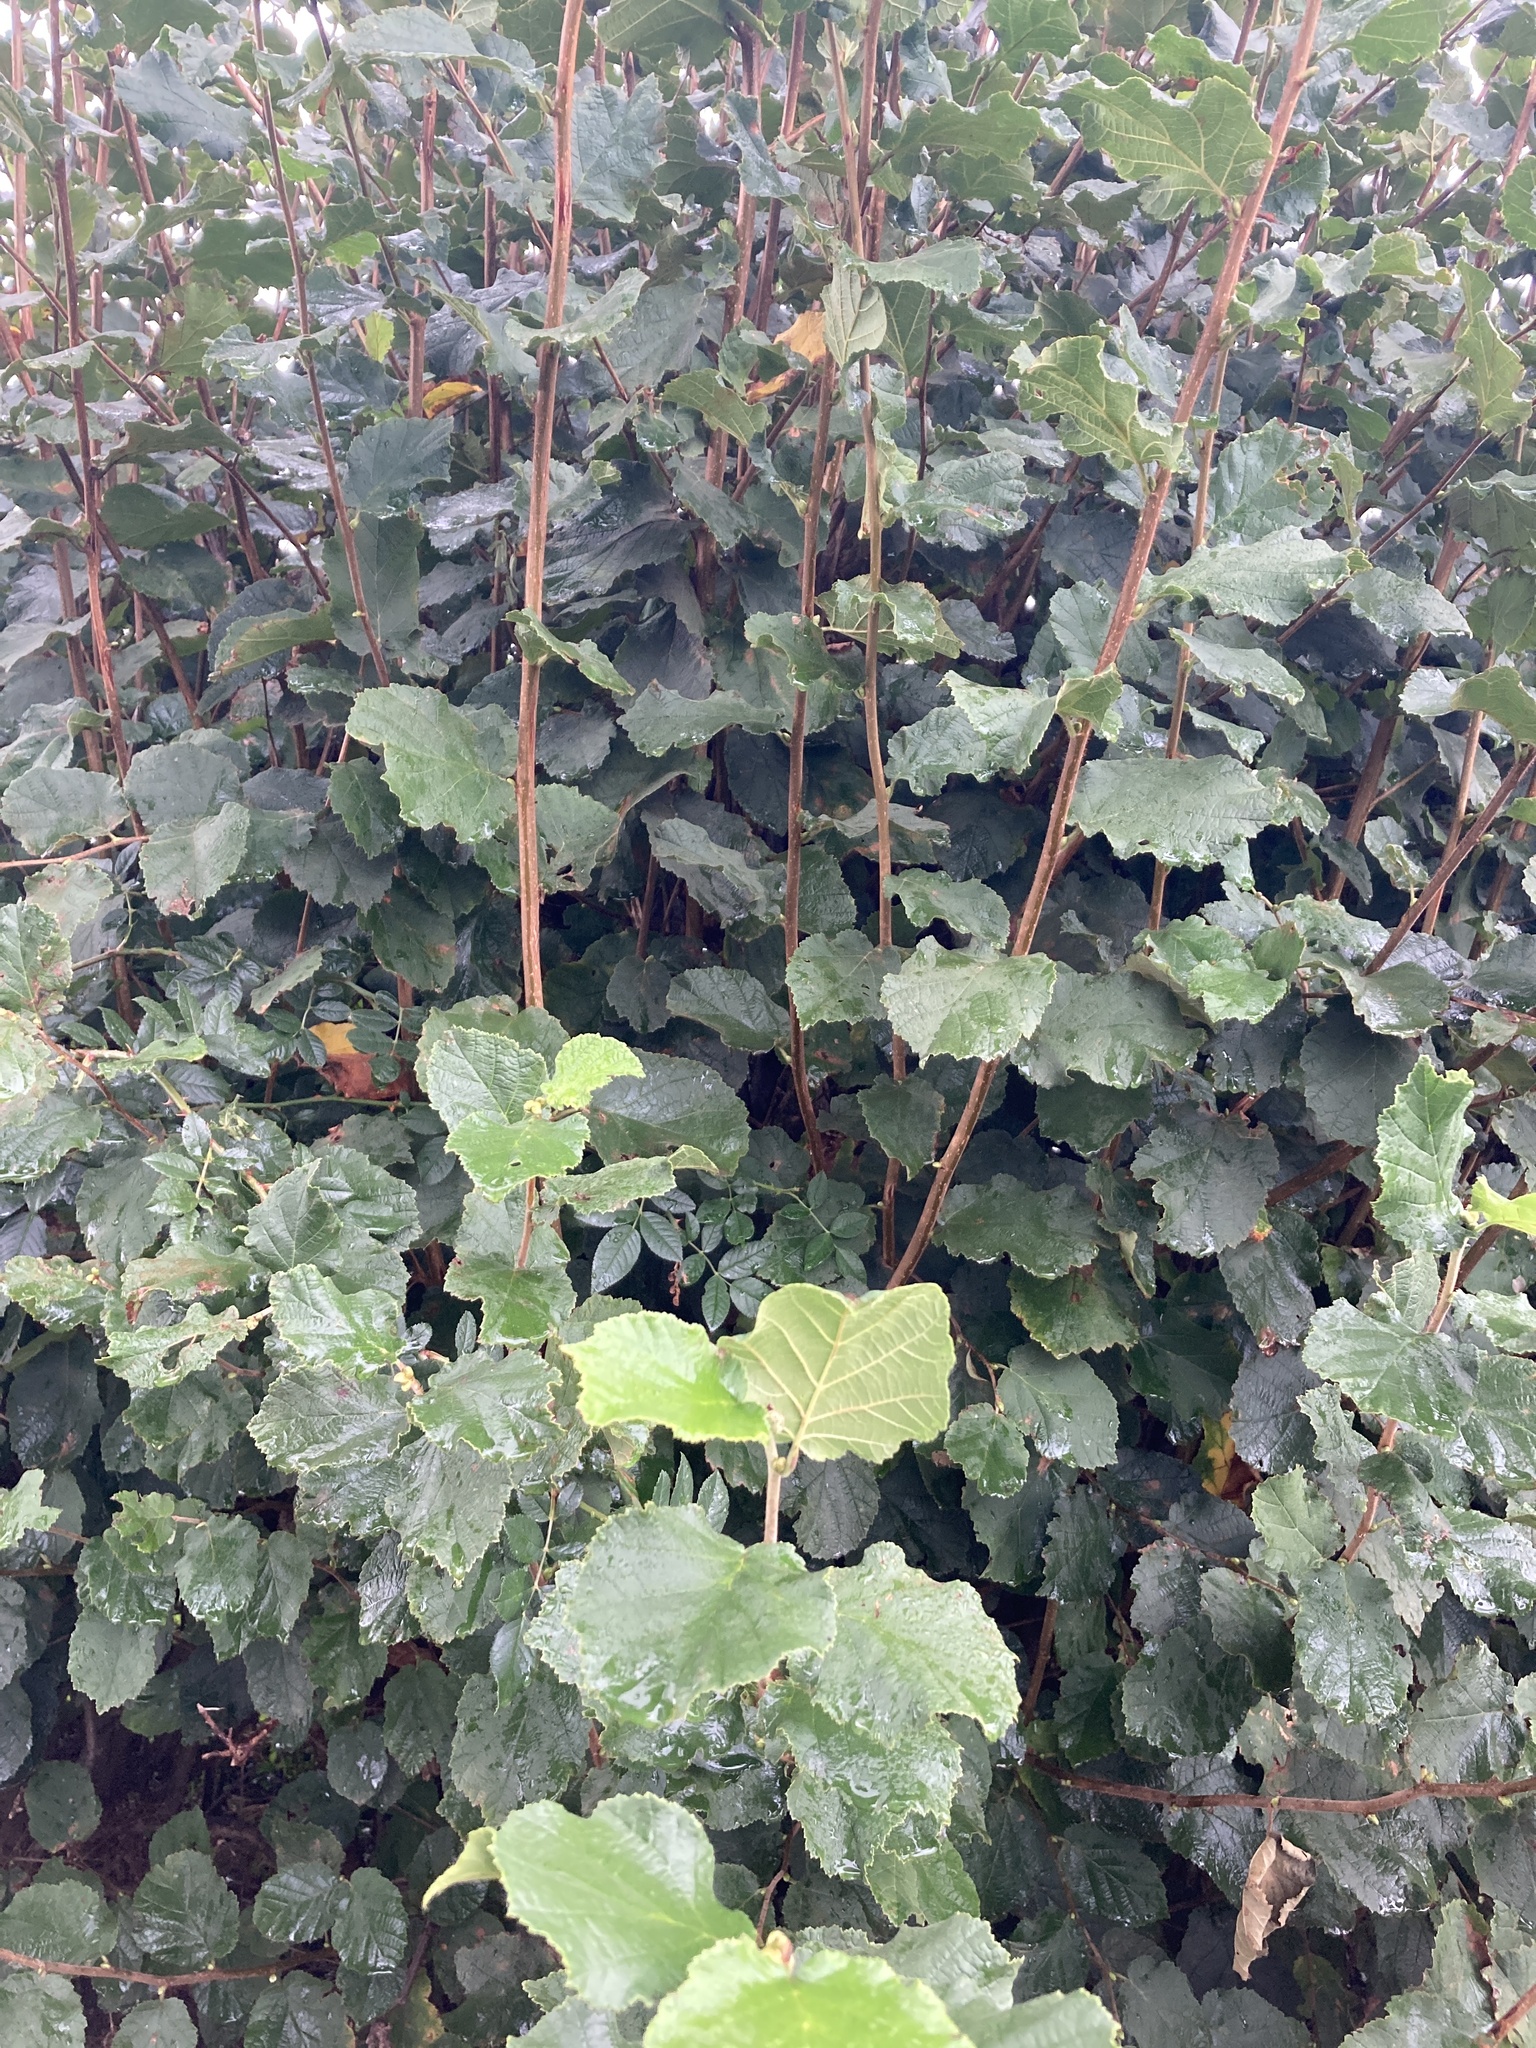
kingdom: Plantae
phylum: Tracheophyta
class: Magnoliopsida
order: Fagales
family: Betulaceae
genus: Corylus
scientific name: Corylus avellana
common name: European hazel
